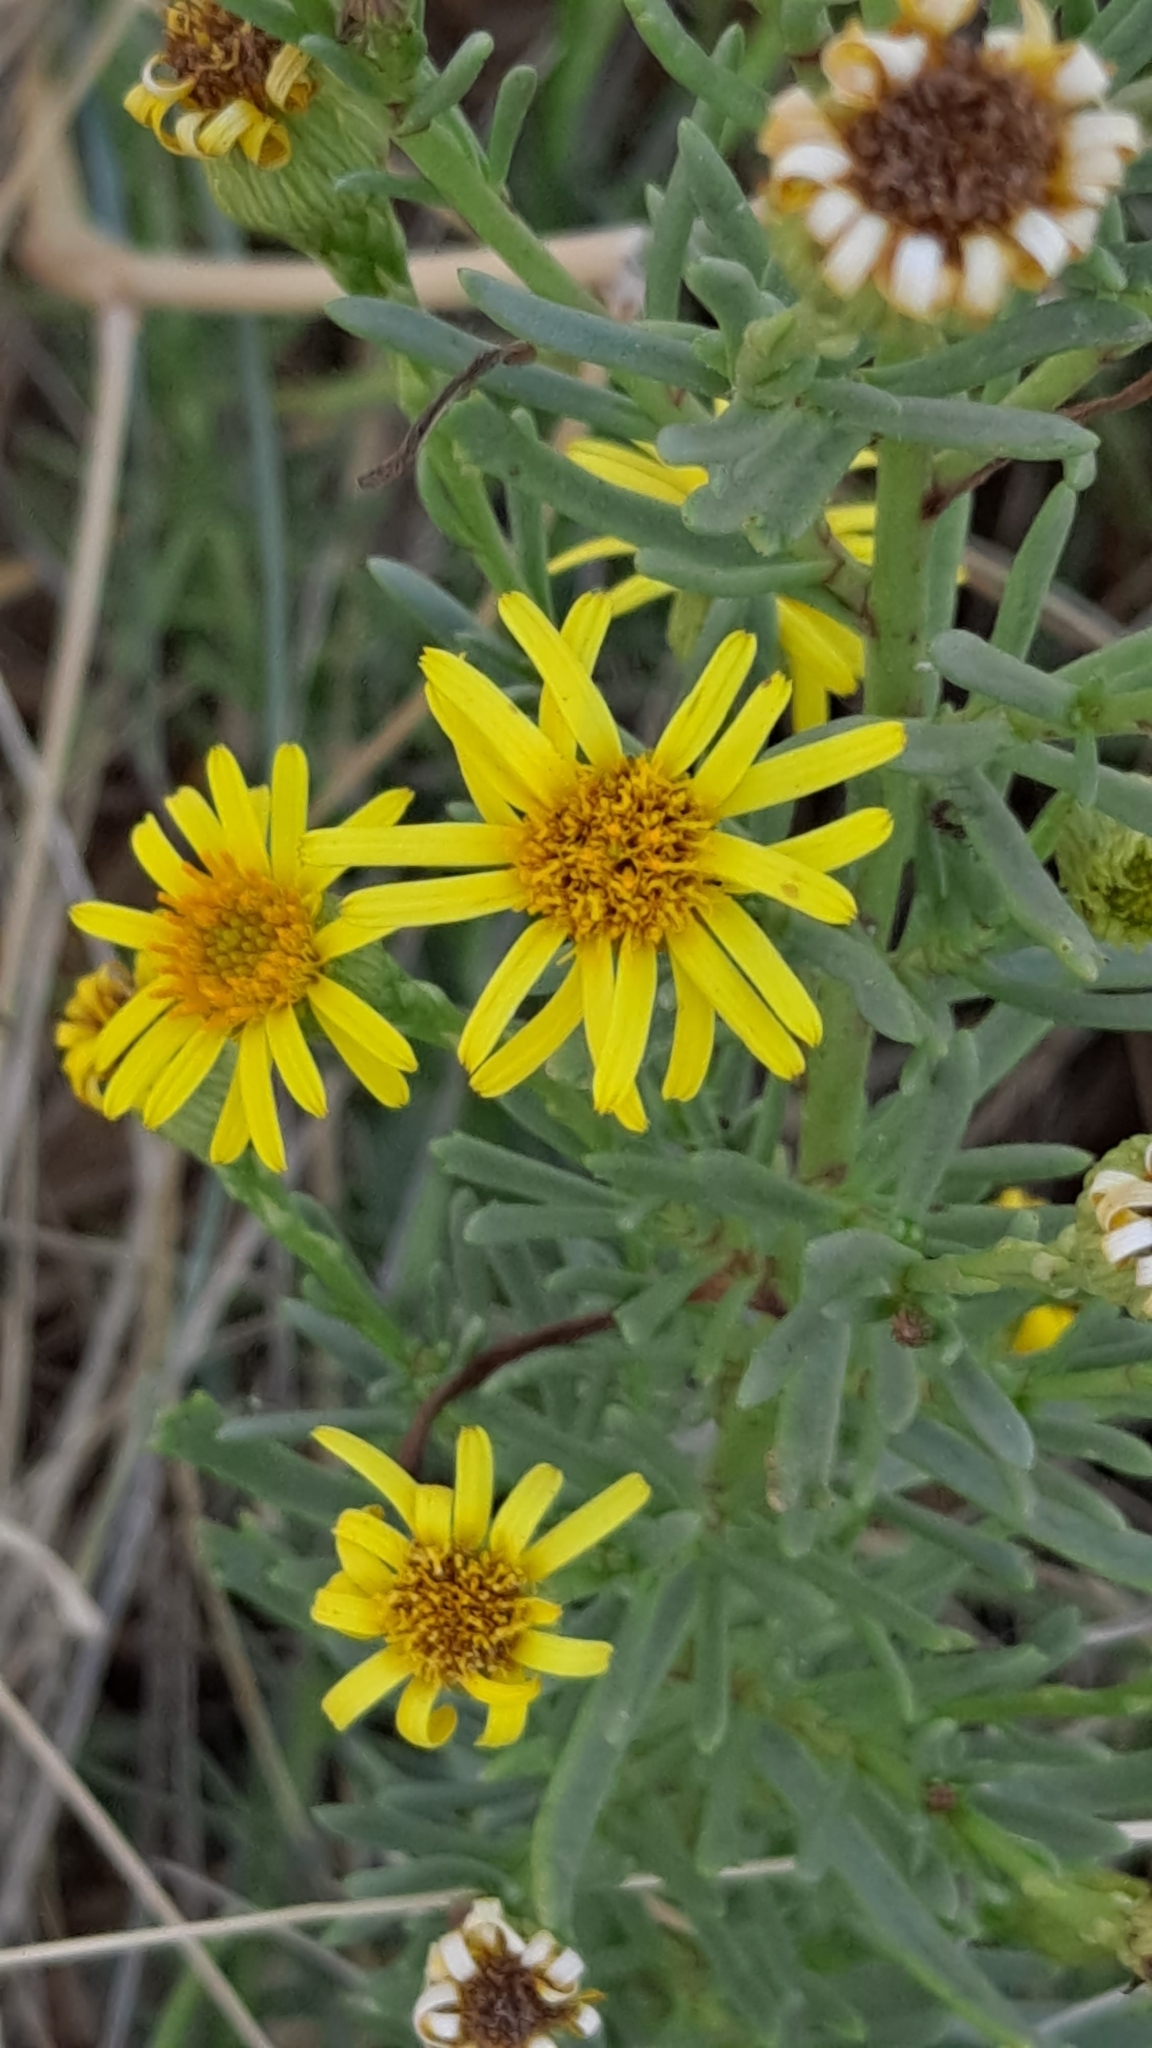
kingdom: Plantae
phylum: Tracheophyta
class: Magnoliopsida
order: Asterales
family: Asteraceae
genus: Limbarda
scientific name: Limbarda crithmoides
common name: Golden samphire
